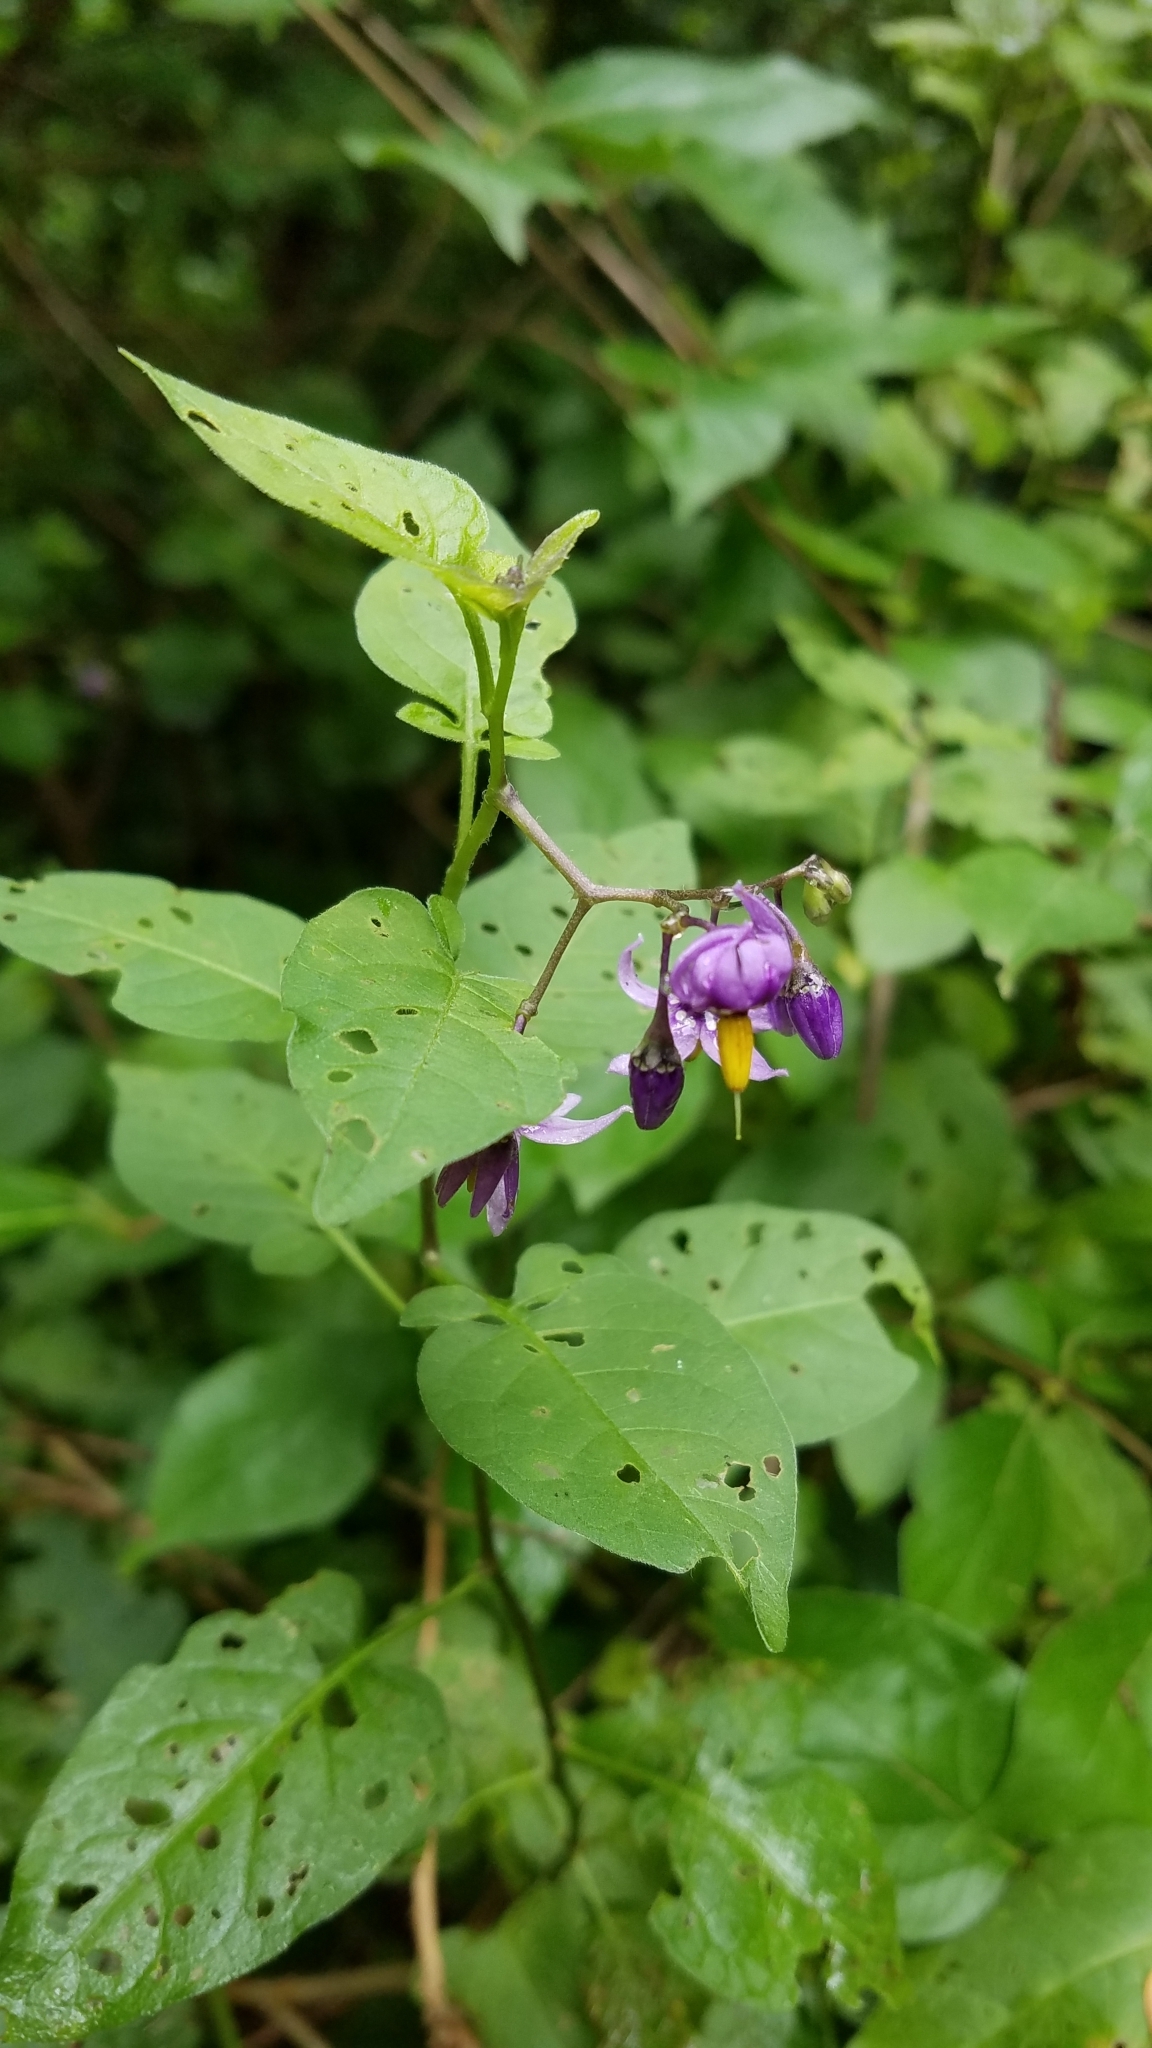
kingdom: Plantae
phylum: Tracheophyta
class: Magnoliopsida
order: Solanales
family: Solanaceae
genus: Solanum
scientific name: Solanum dulcamara
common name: Climbing nightshade
